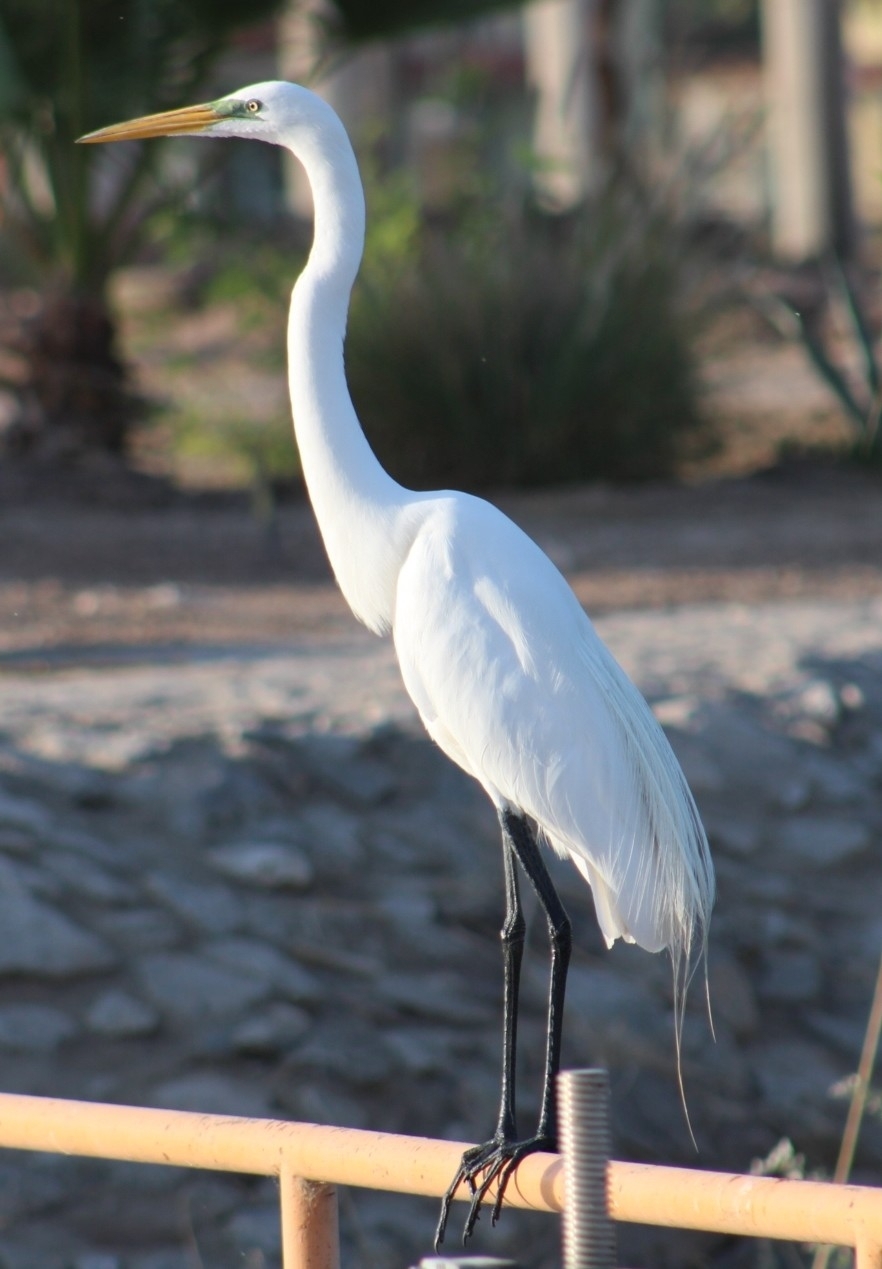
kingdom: Animalia
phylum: Chordata
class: Aves
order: Pelecaniformes
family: Ardeidae
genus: Ardea
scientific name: Ardea alba
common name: Great egret
